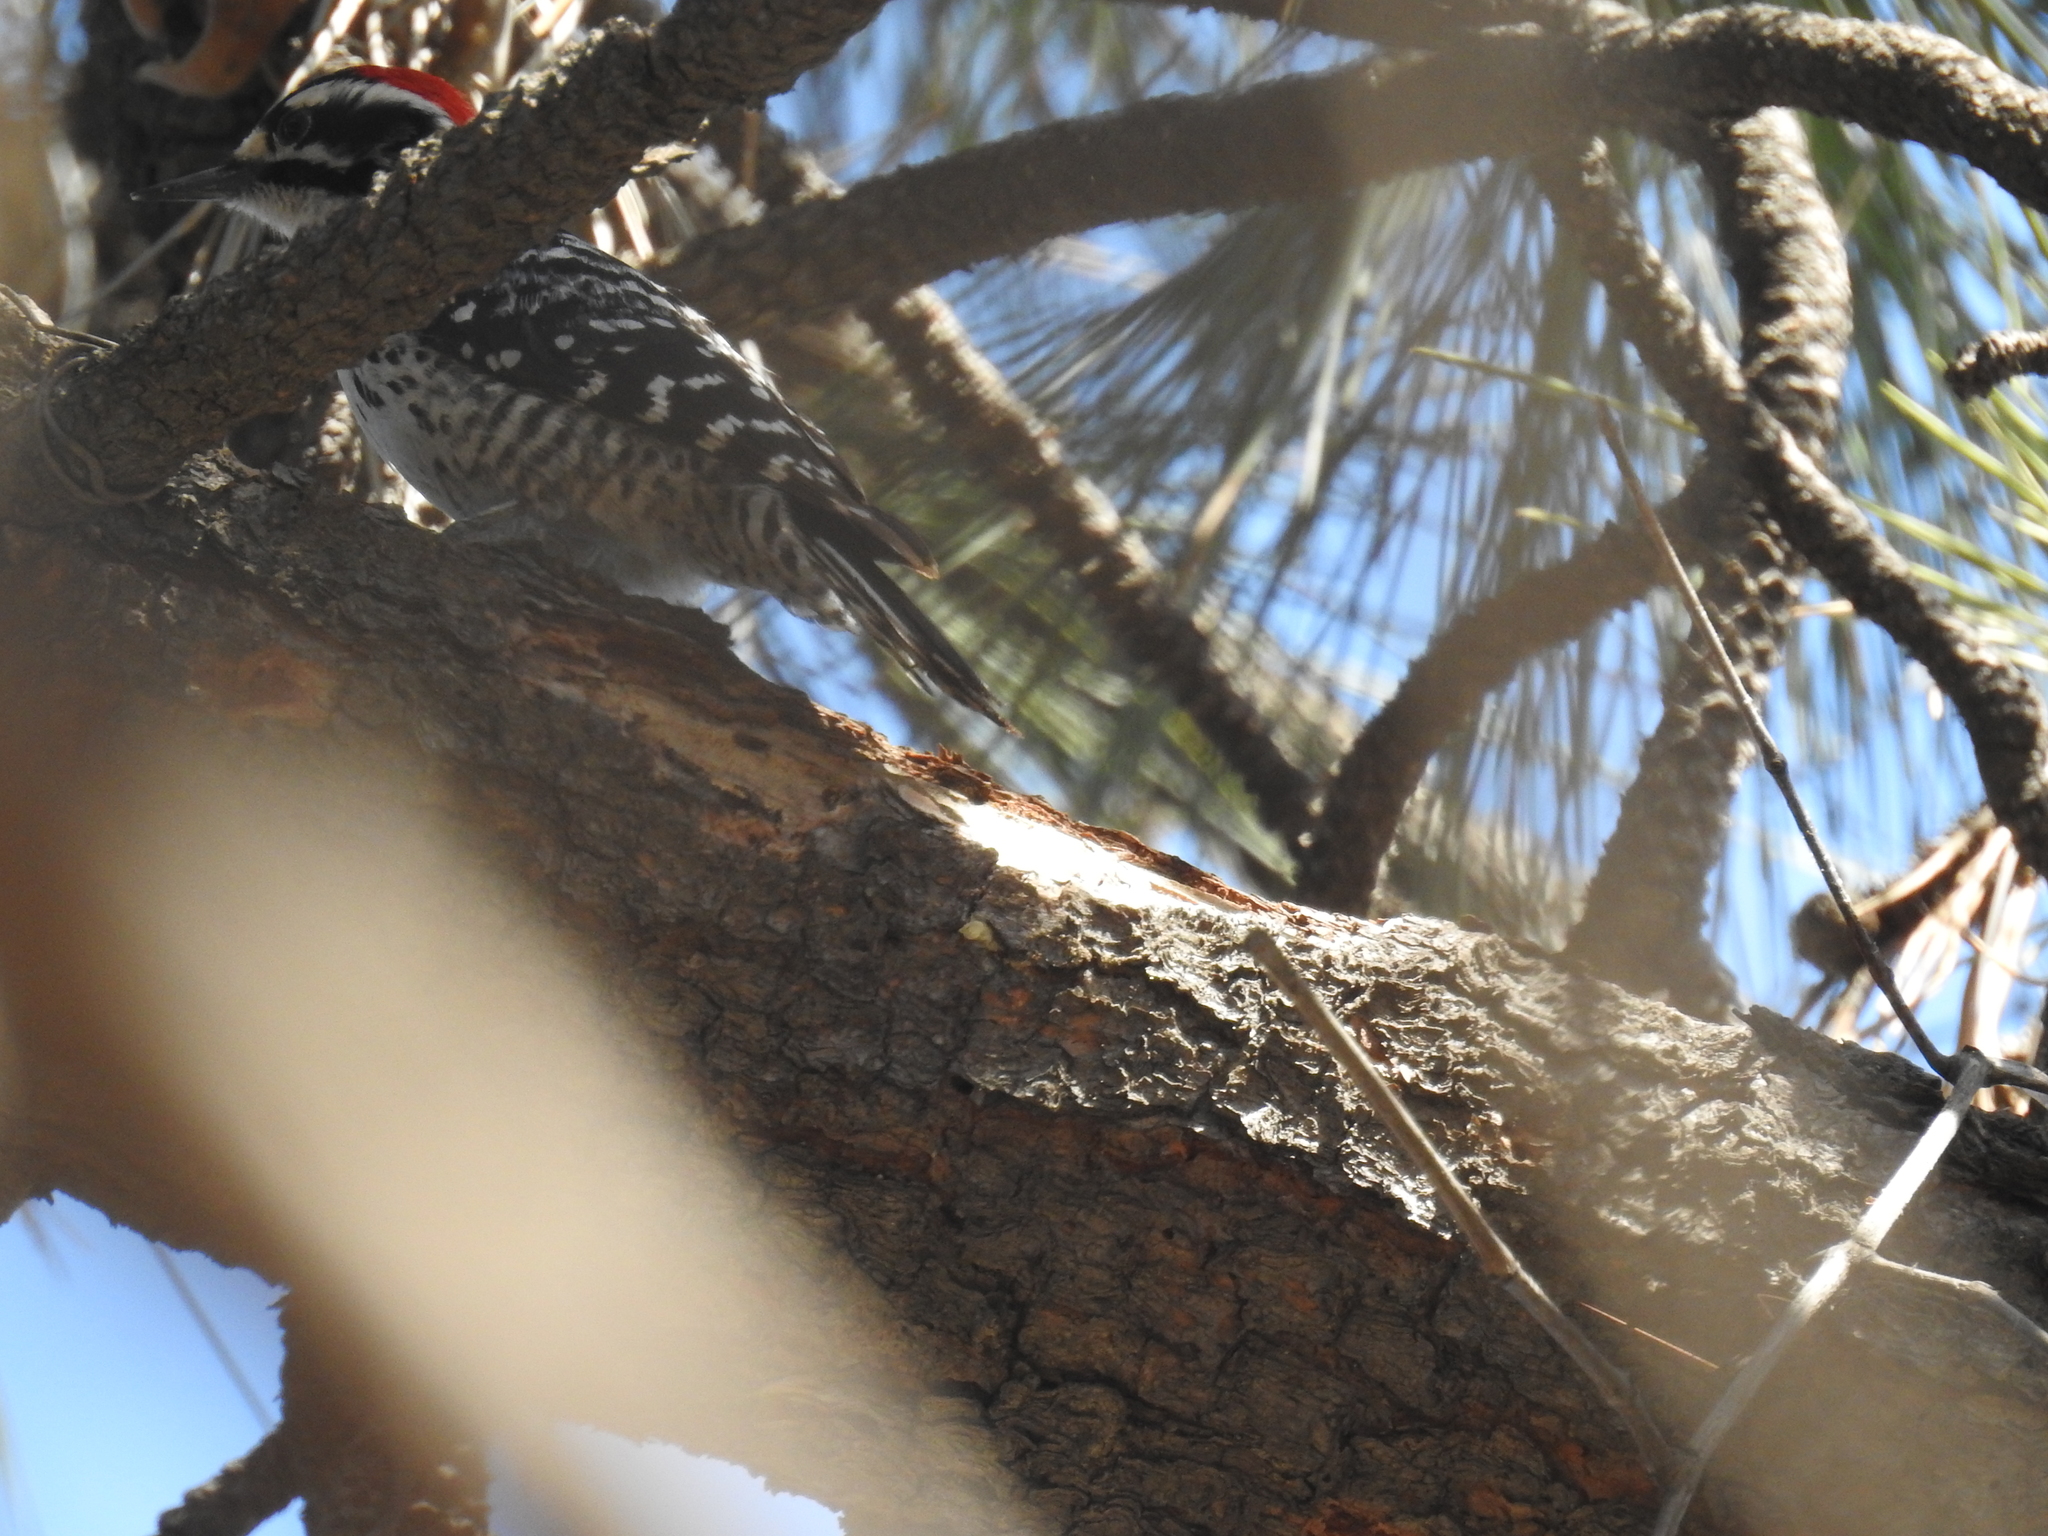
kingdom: Animalia
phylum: Chordata
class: Aves
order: Piciformes
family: Picidae
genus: Dryobates
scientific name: Dryobates nuttallii
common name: Nuttall's woodpecker
